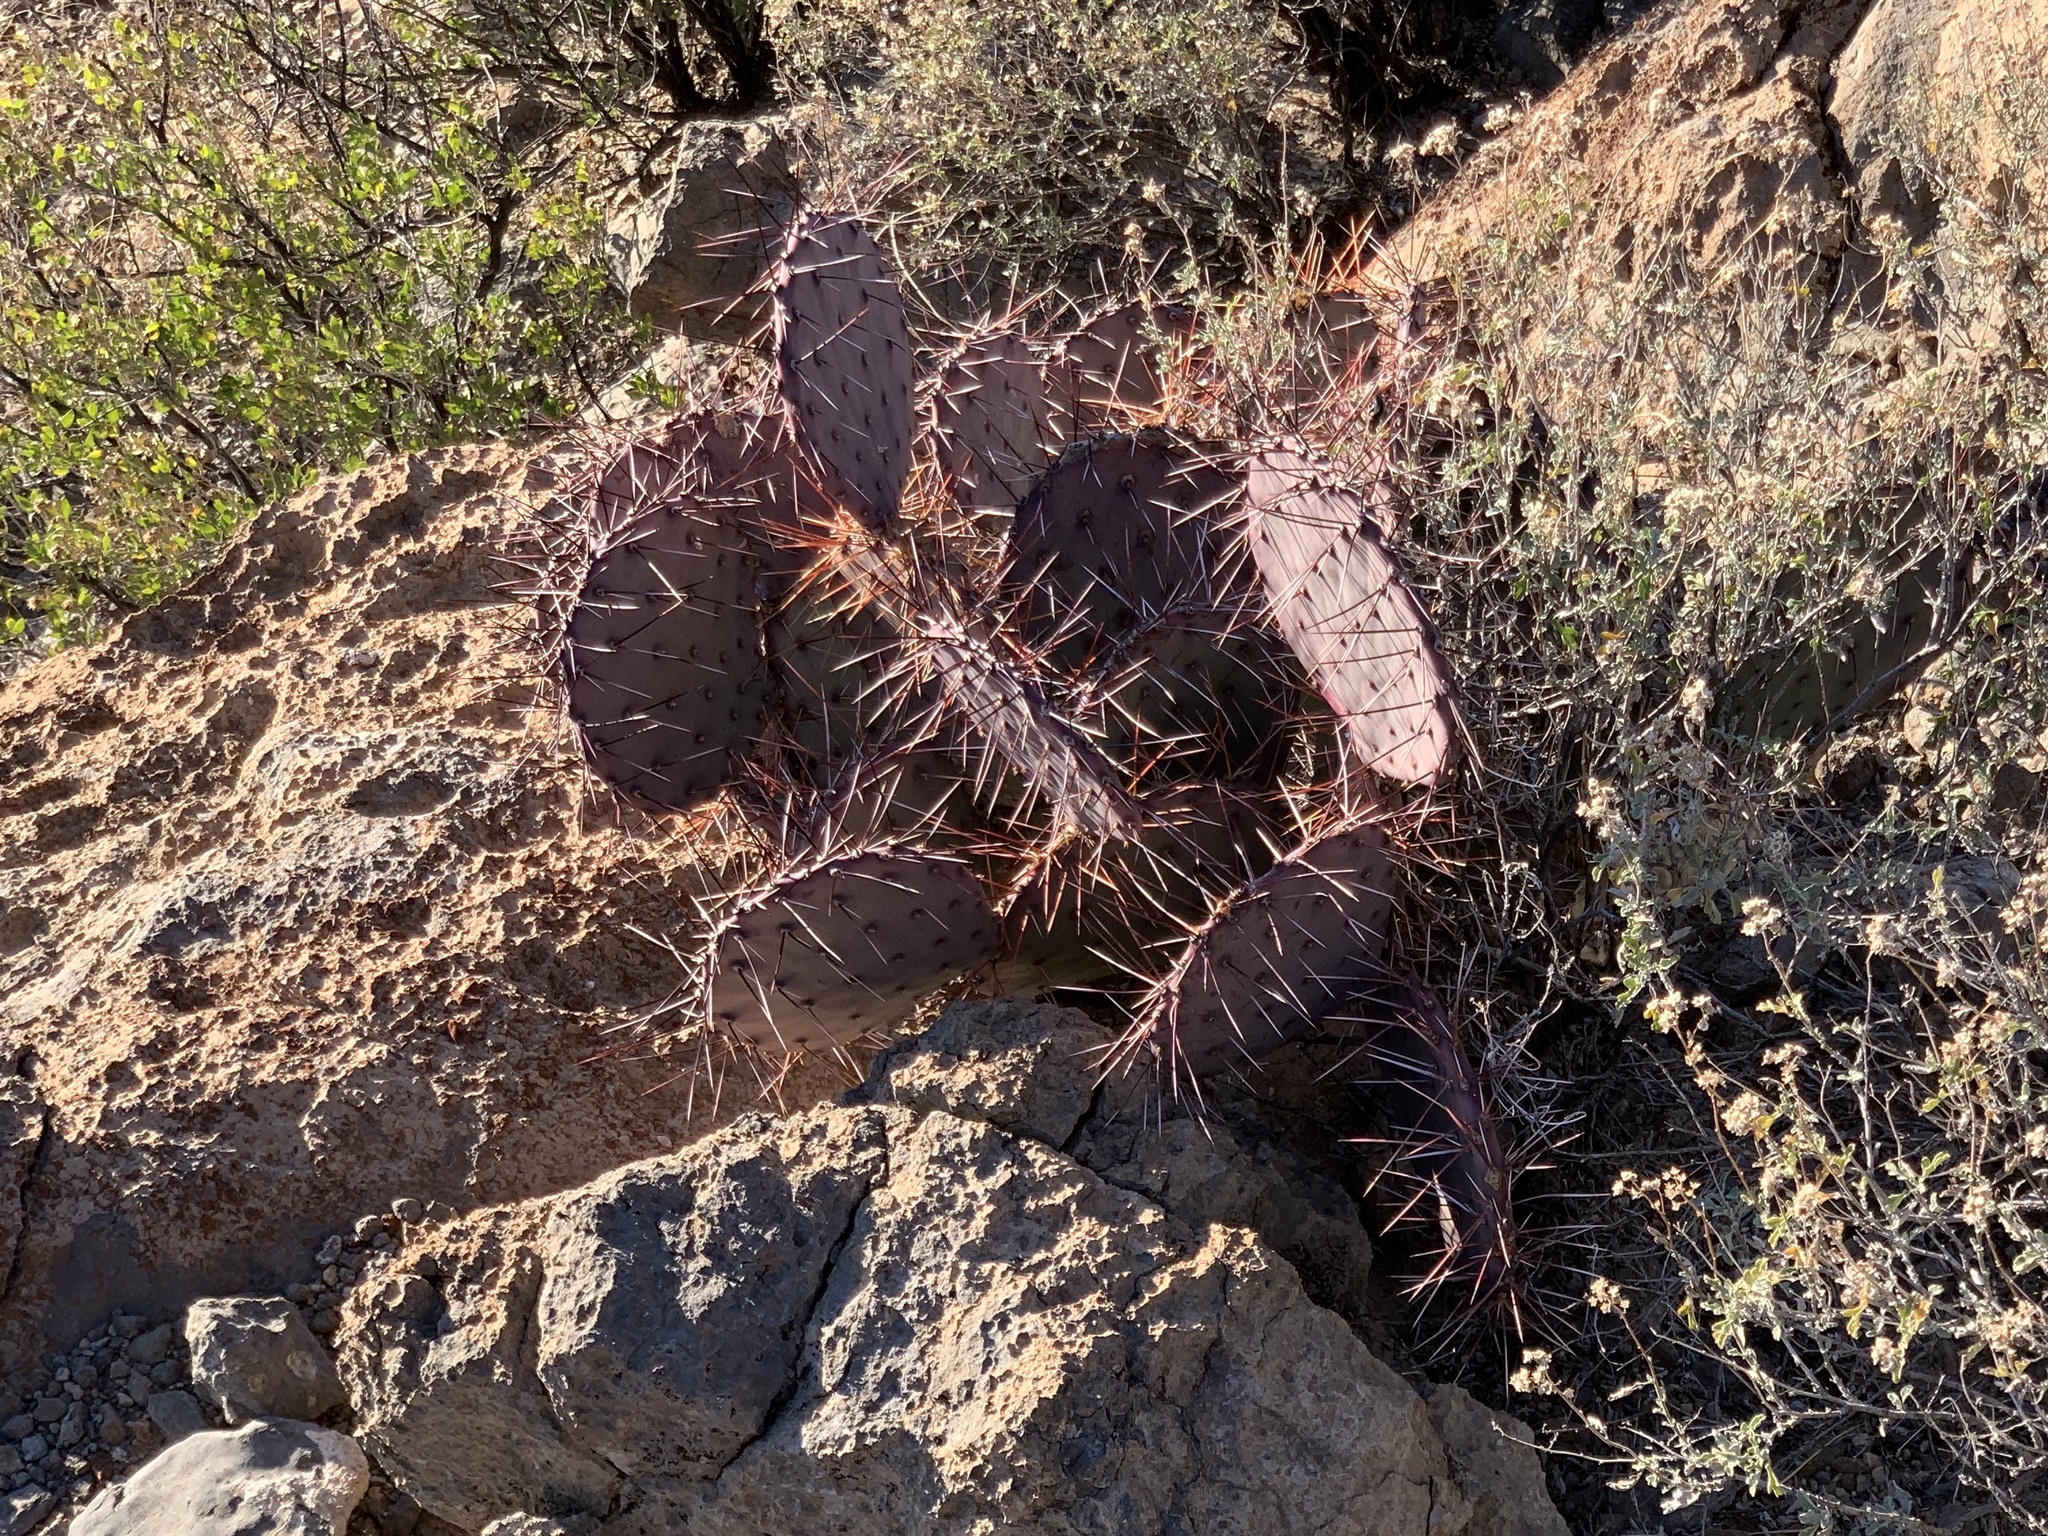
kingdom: Plantae
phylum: Tracheophyta
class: Magnoliopsida
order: Caryophyllales
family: Cactaceae
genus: Opuntia
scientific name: Opuntia macrocentra
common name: Purple prickly-pear
